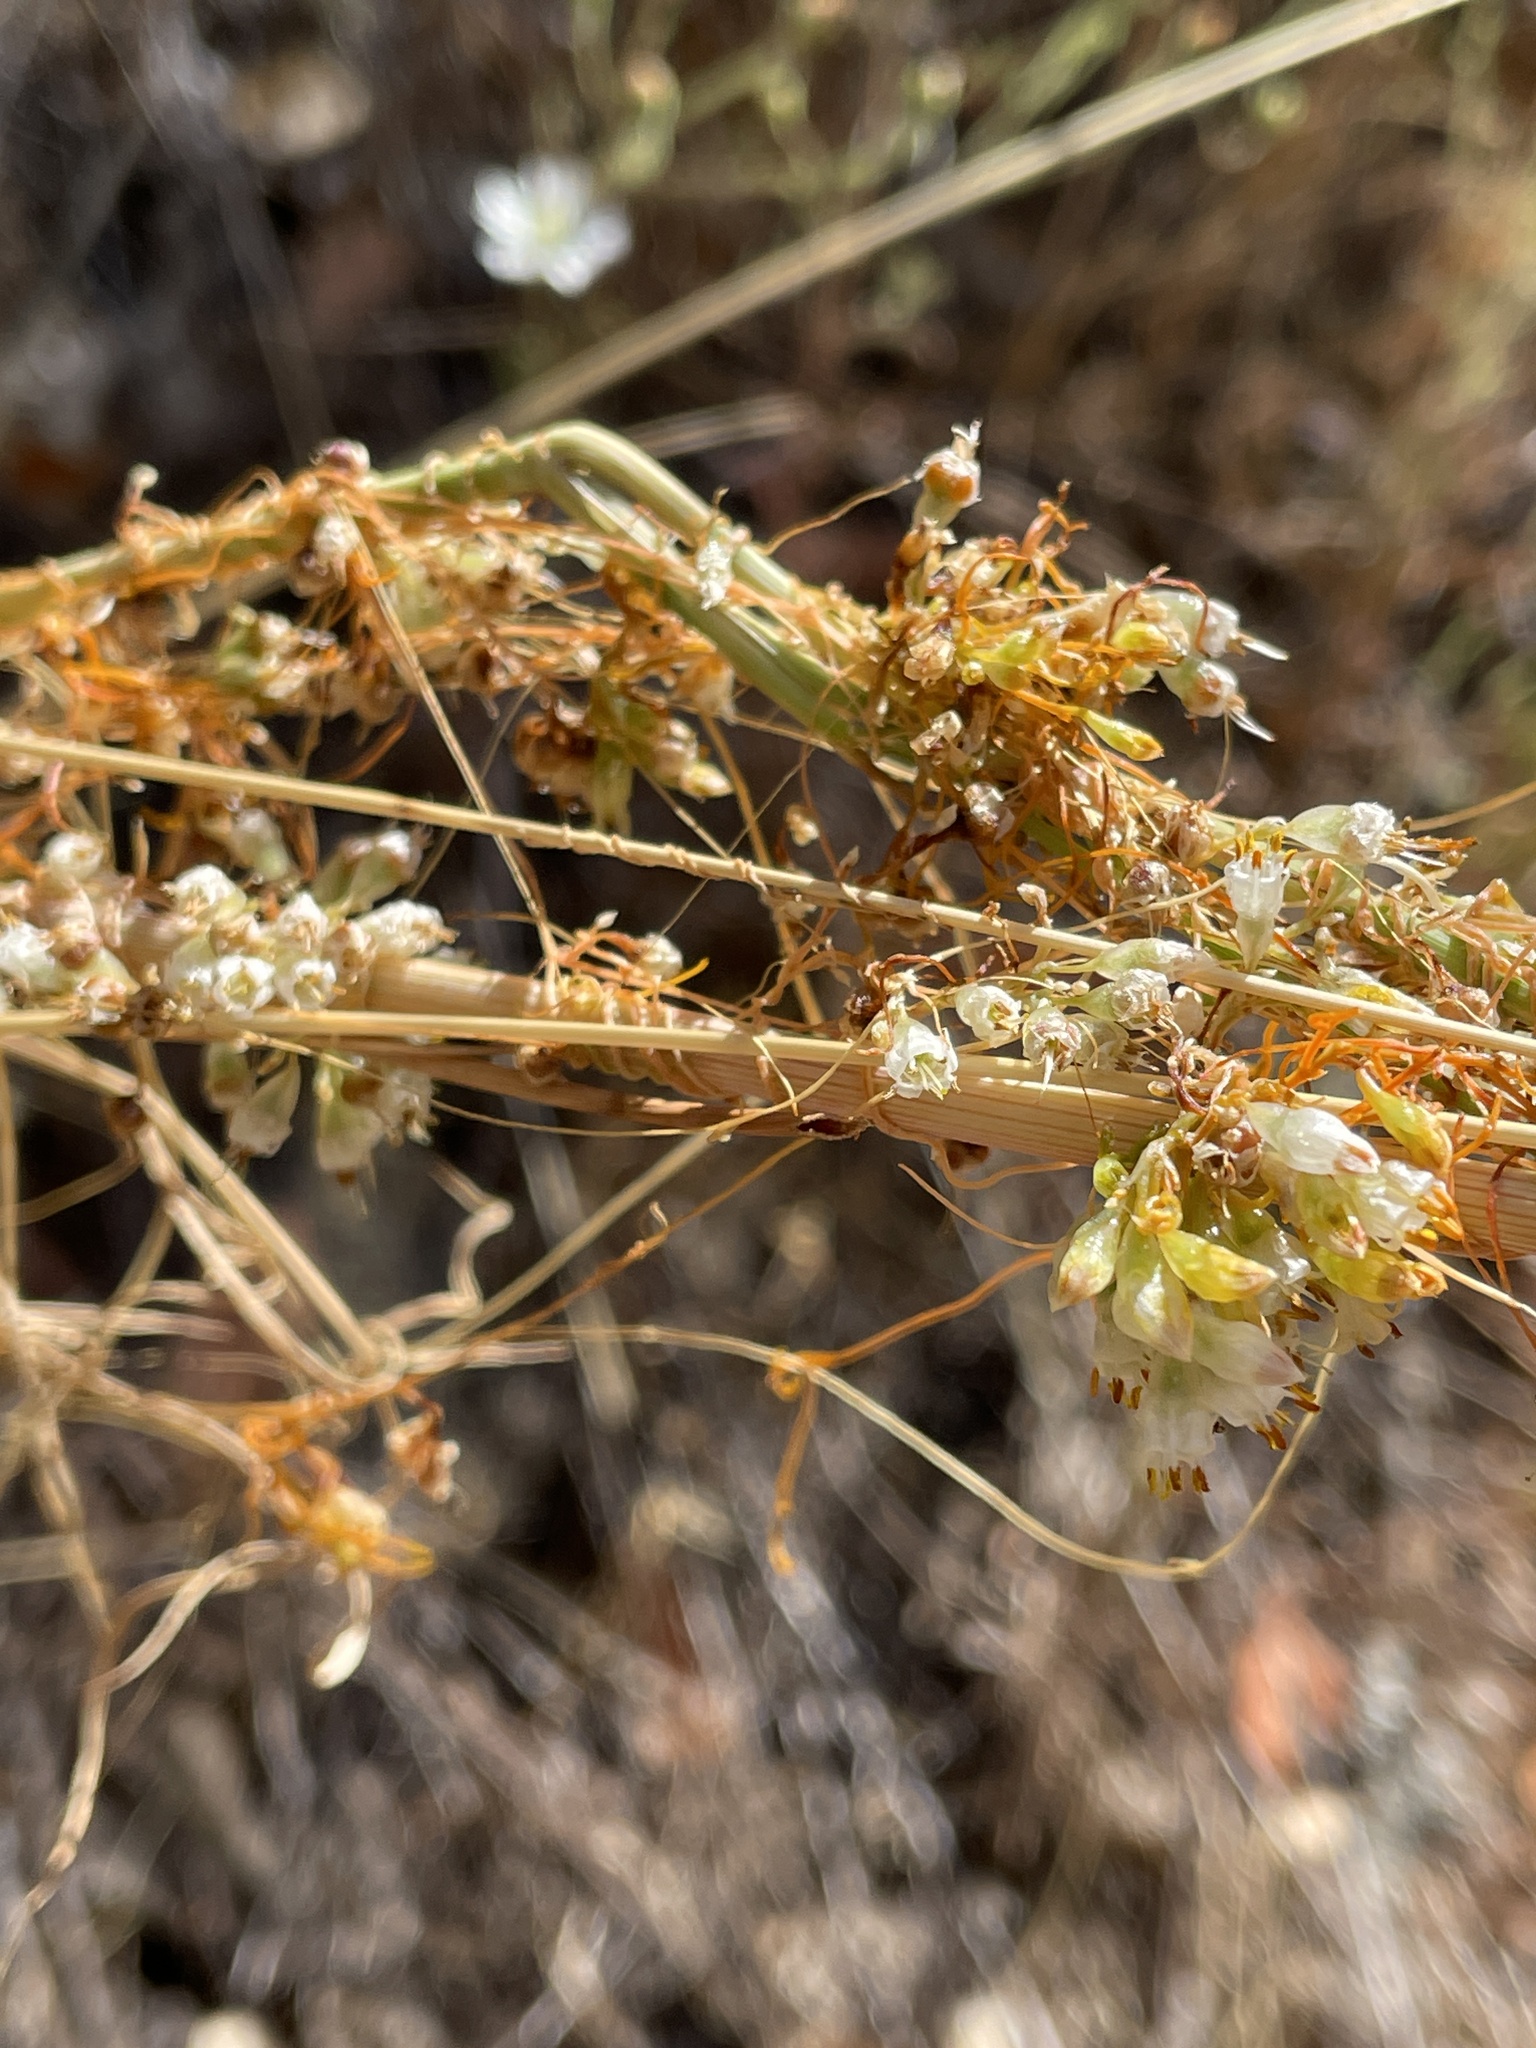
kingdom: Plantae
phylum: Tracheophyta
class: Magnoliopsida
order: Solanales
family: Convolvulaceae
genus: Cuscuta
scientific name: Cuscuta californica
